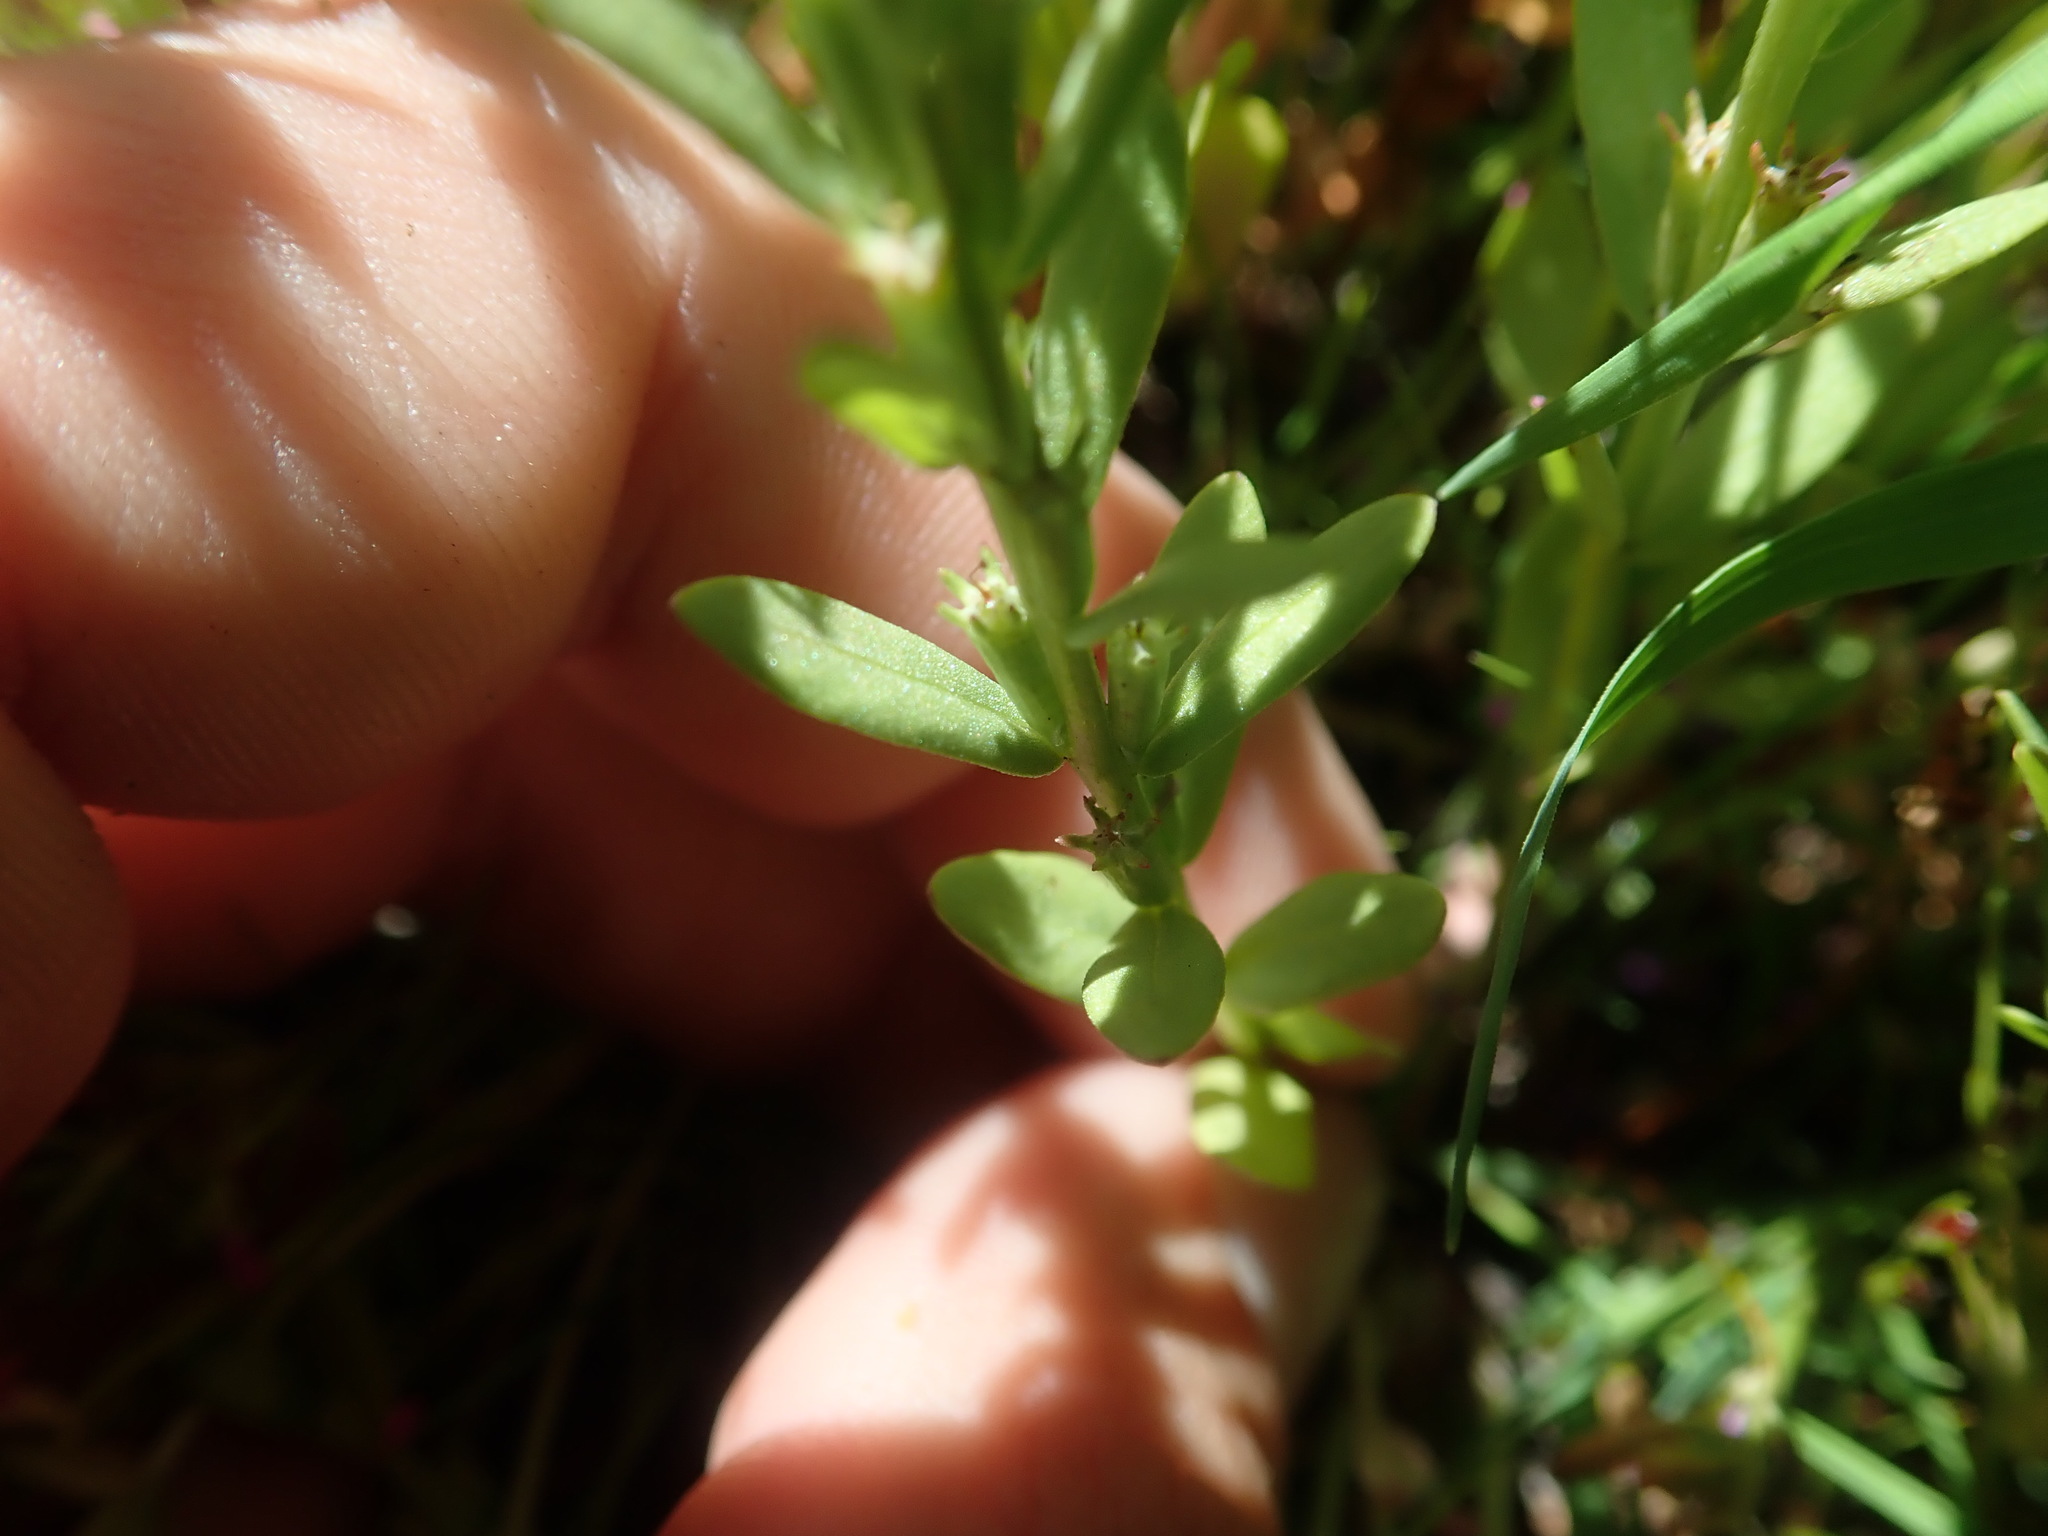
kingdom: Plantae
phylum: Tracheophyta
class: Magnoliopsida
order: Myrtales
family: Lythraceae
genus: Lythrum
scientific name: Lythrum hyssopifolia
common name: Grass-poly
